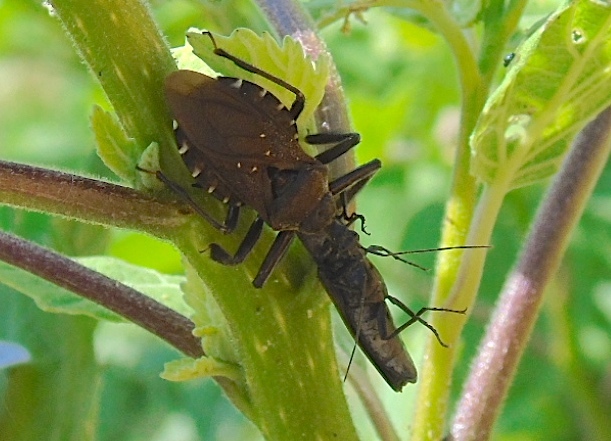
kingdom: Animalia
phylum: Arthropoda
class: Insecta
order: Hemiptera
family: Reduviidae
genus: Apiomerus
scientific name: Apiomerus longispinis
